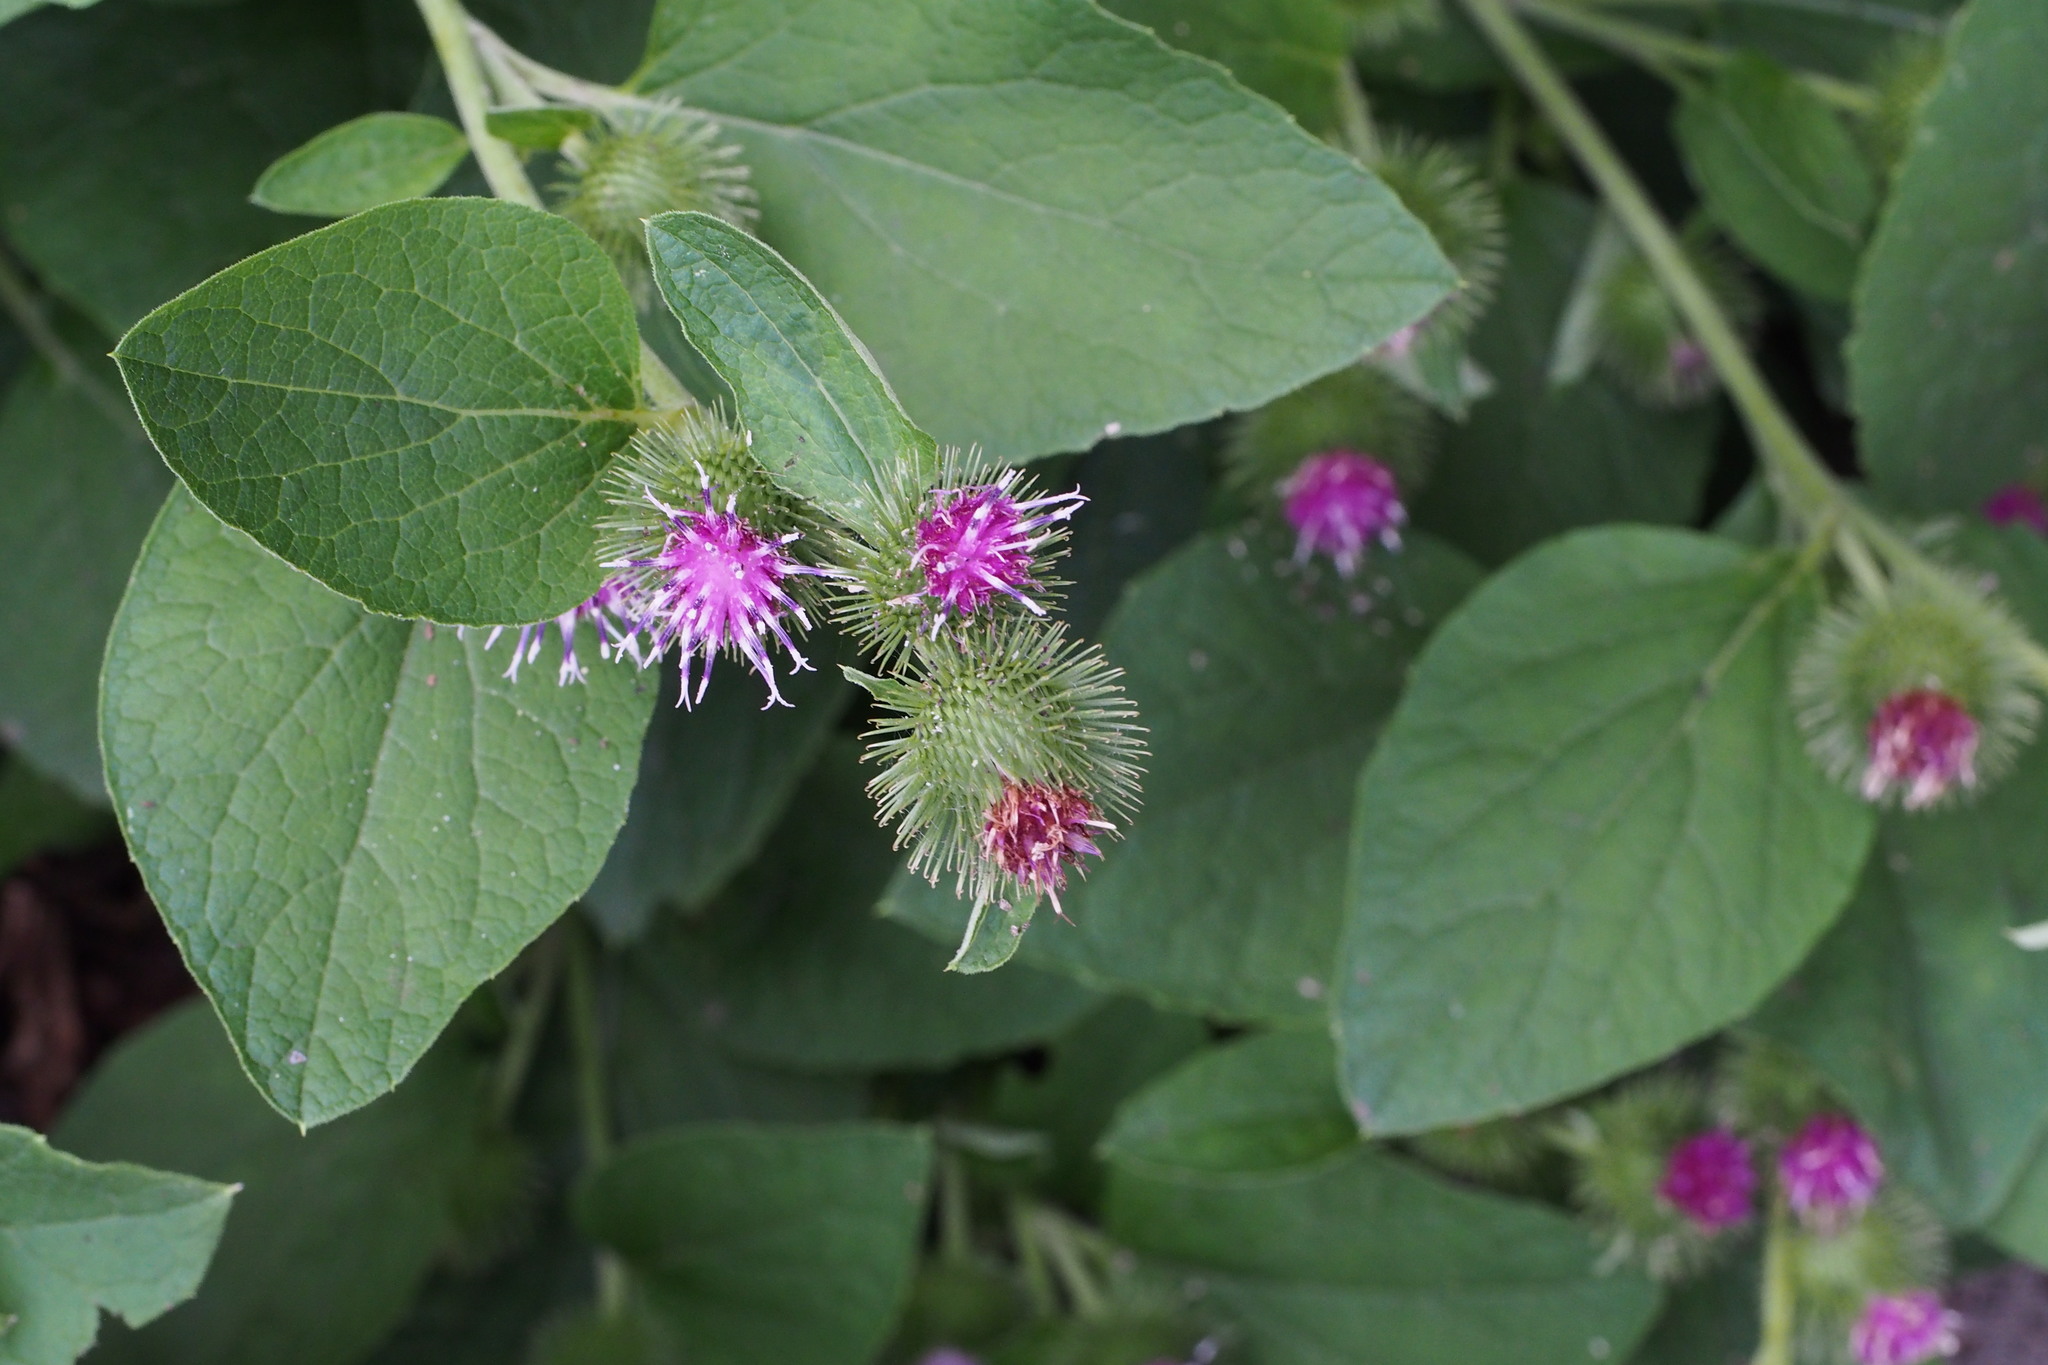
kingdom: Plantae
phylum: Tracheophyta
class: Magnoliopsida
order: Asterales
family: Asteraceae
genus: Arctium
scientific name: Arctium lappa
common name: Greater burdock
